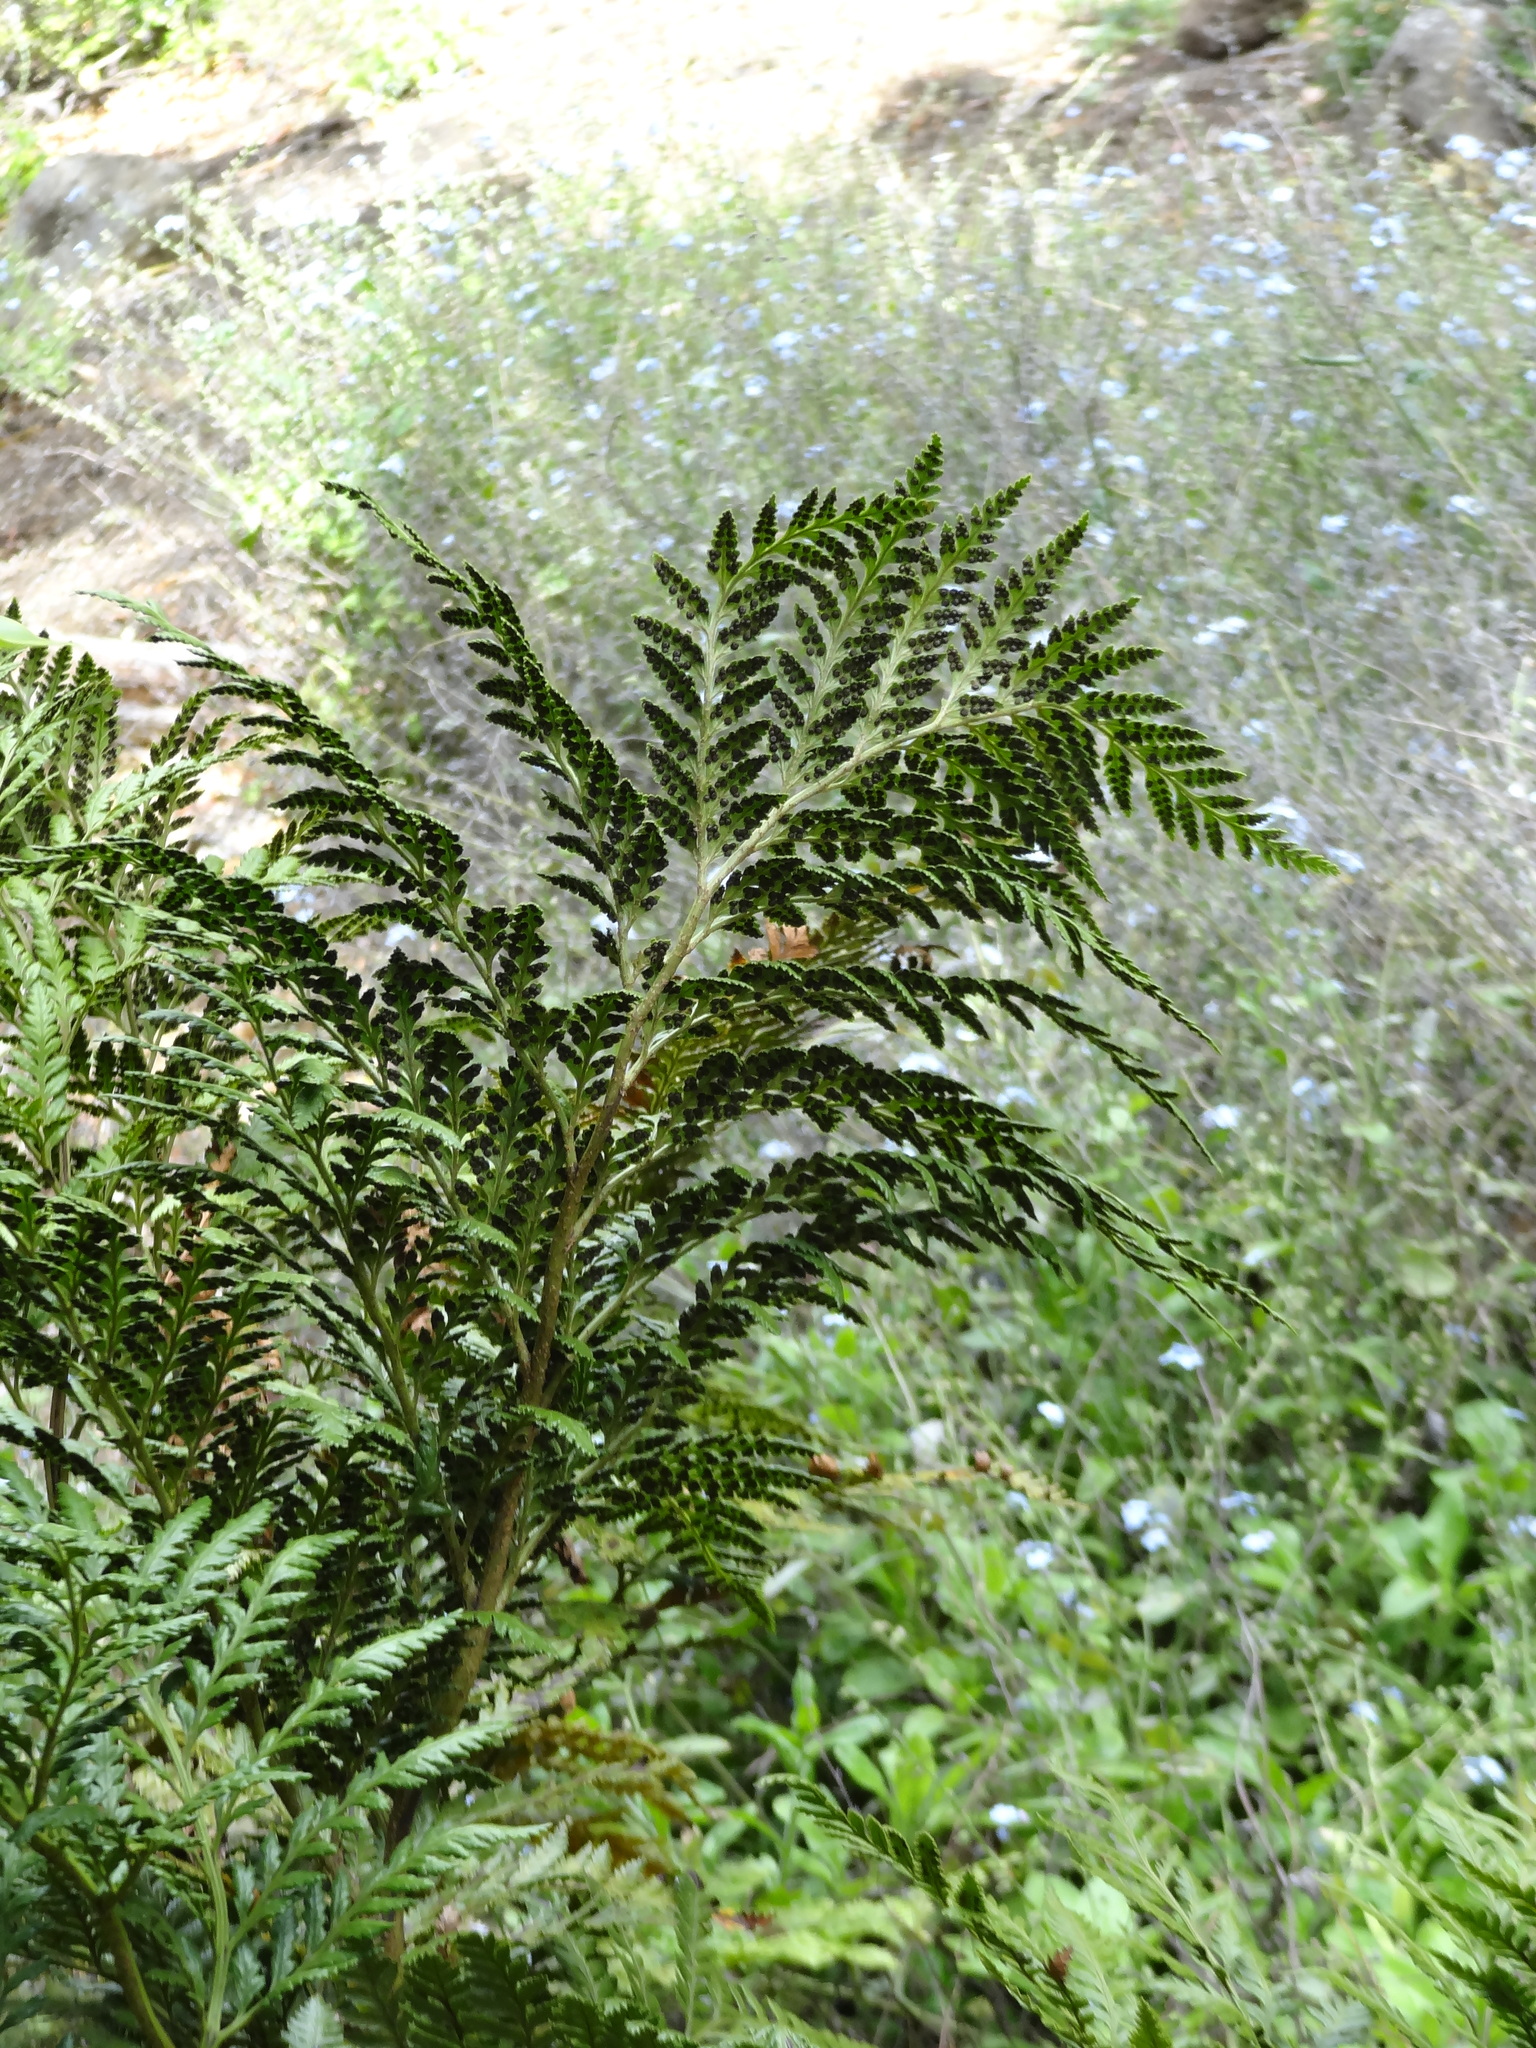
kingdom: Plantae
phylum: Tracheophyta
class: Polypodiopsida
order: Polypodiales
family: Dryopteridaceae
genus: Rumohra
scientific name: Rumohra adiantiformis
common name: Leather fern
